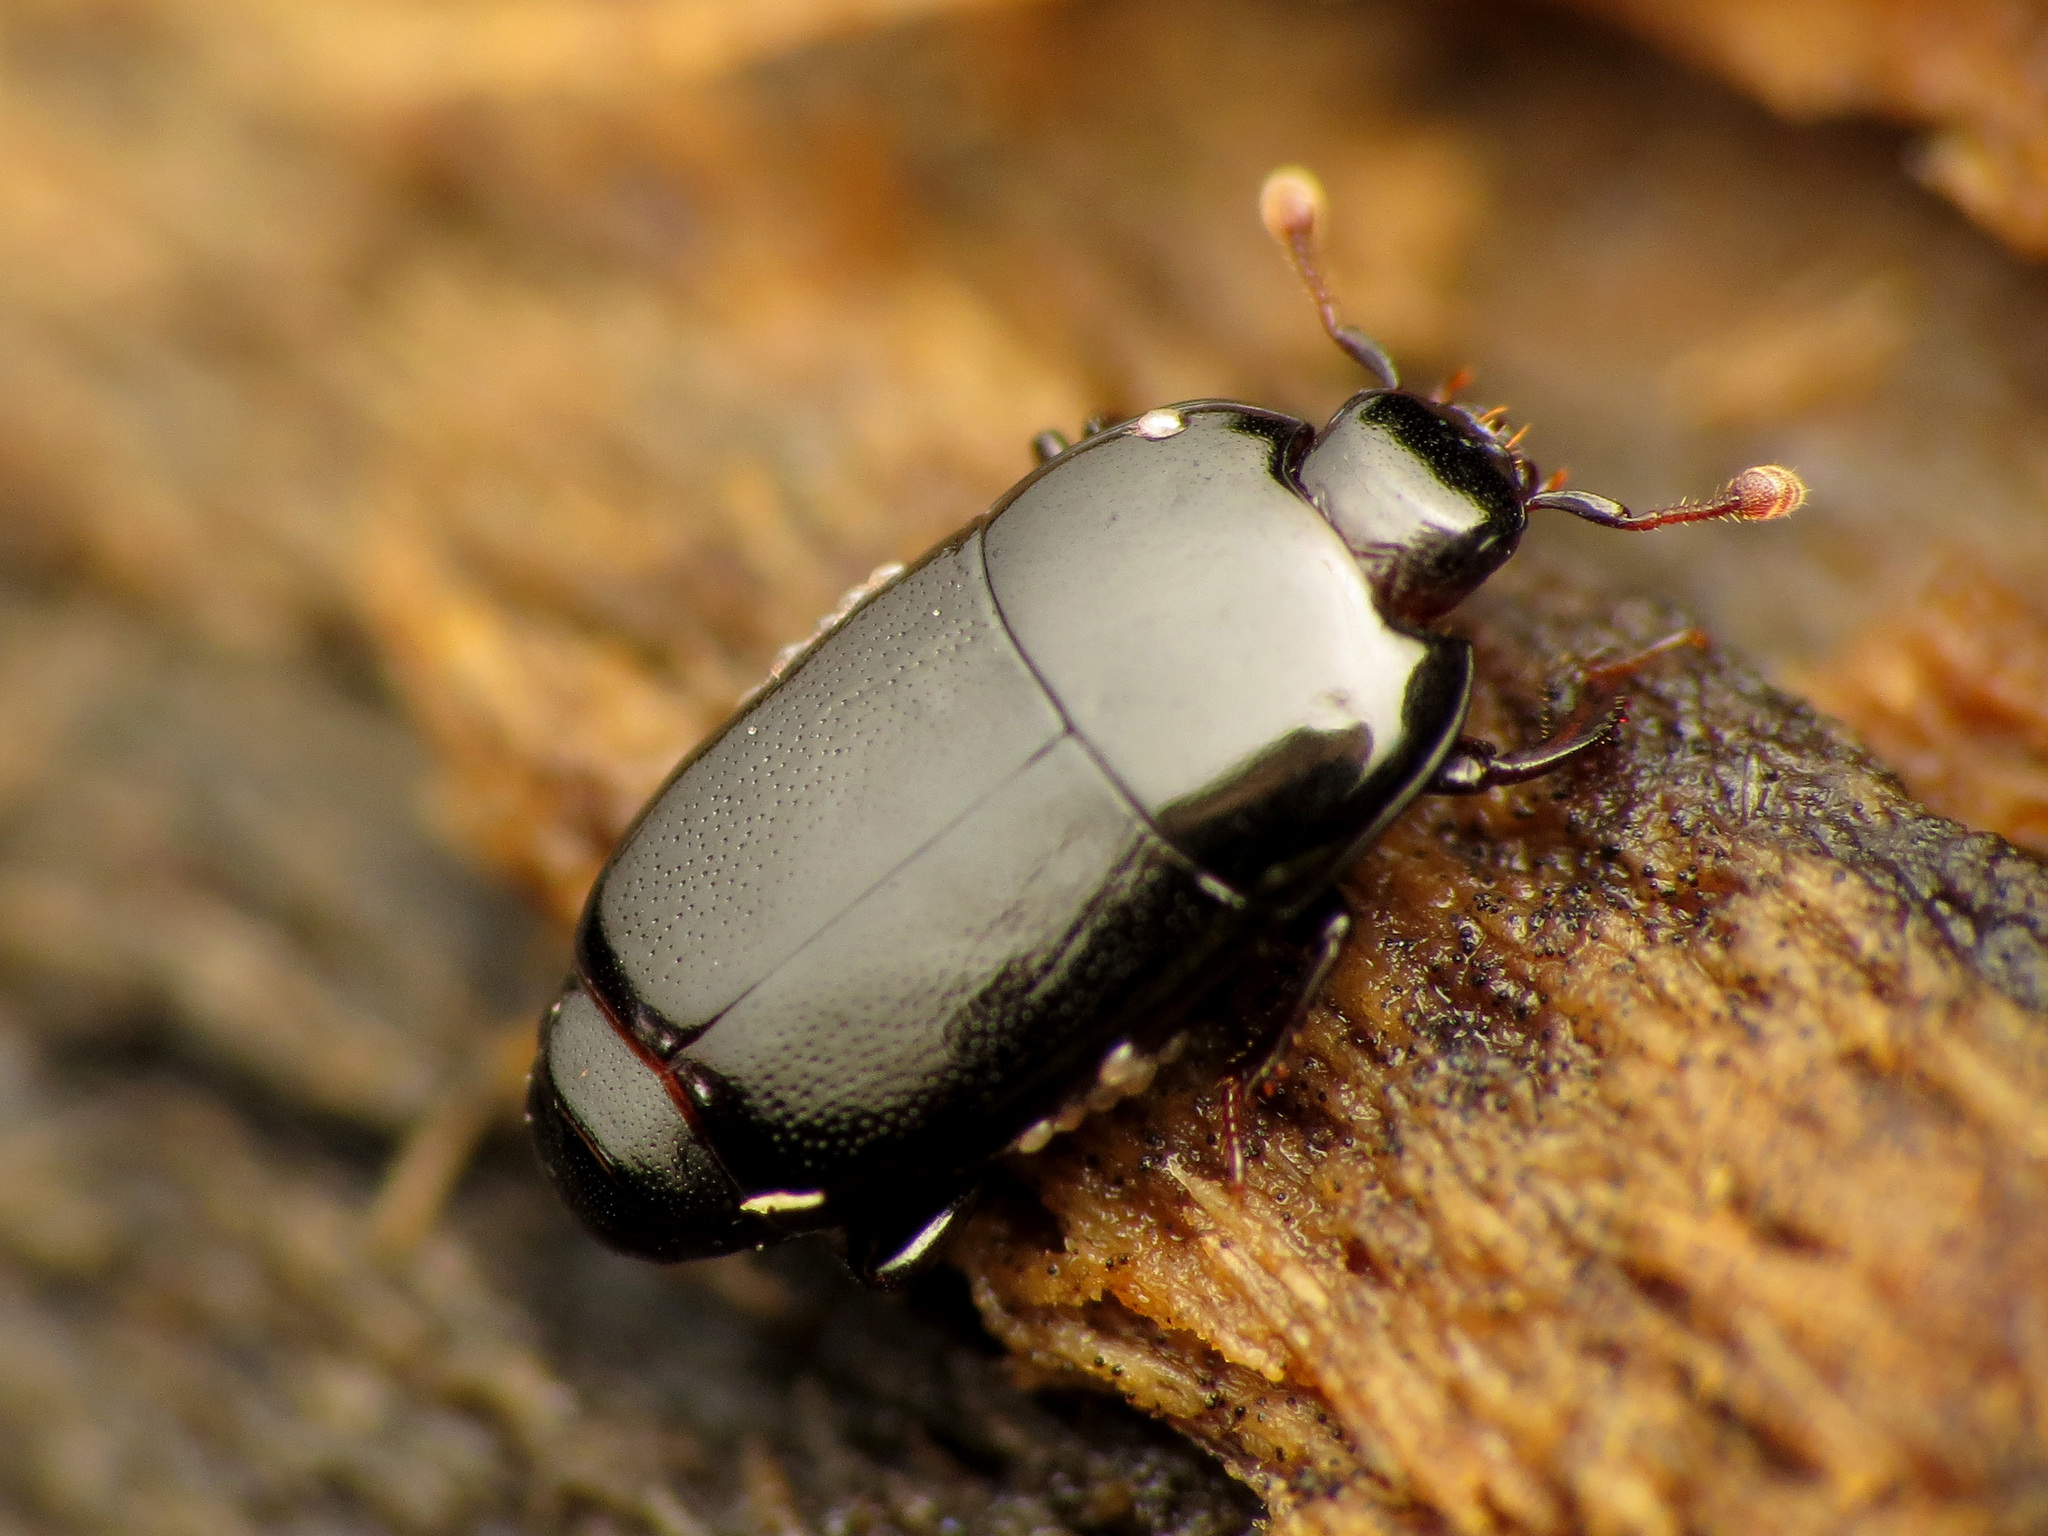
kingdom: Animalia
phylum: Arthropoda
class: Insecta
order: Coleoptera
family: Histeridae
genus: Platylomalus
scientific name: Platylomalus aequalis
